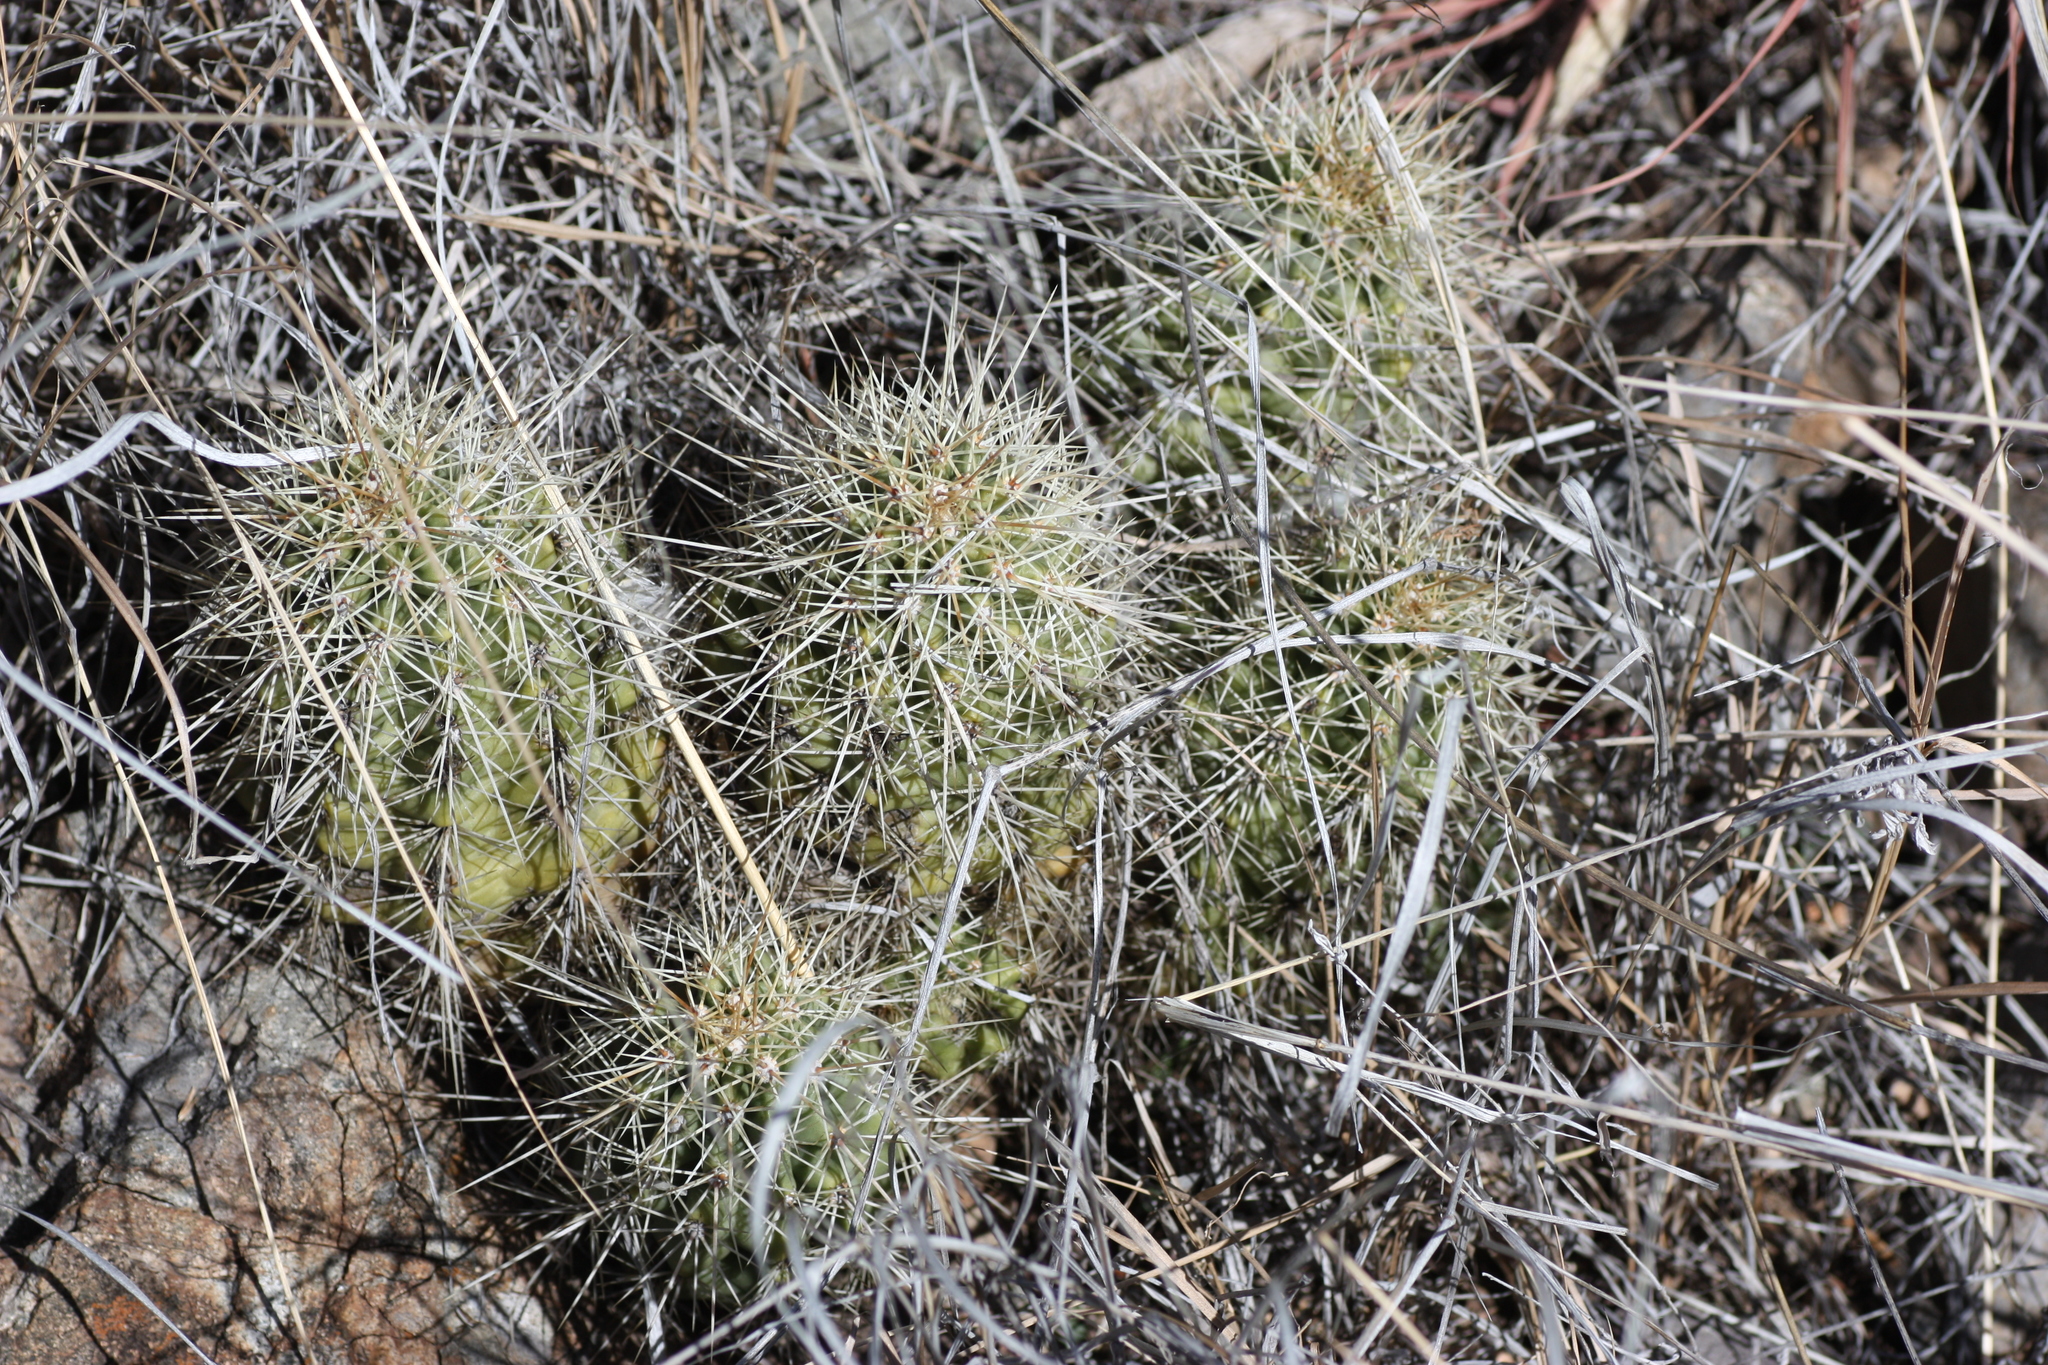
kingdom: Plantae
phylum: Tracheophyta
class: Magnoliopsida
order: Caryophyllales
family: Cactaceae
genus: Echinocereus
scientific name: Echinocereus coccineus
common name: Scarlet hedgehog cactus
